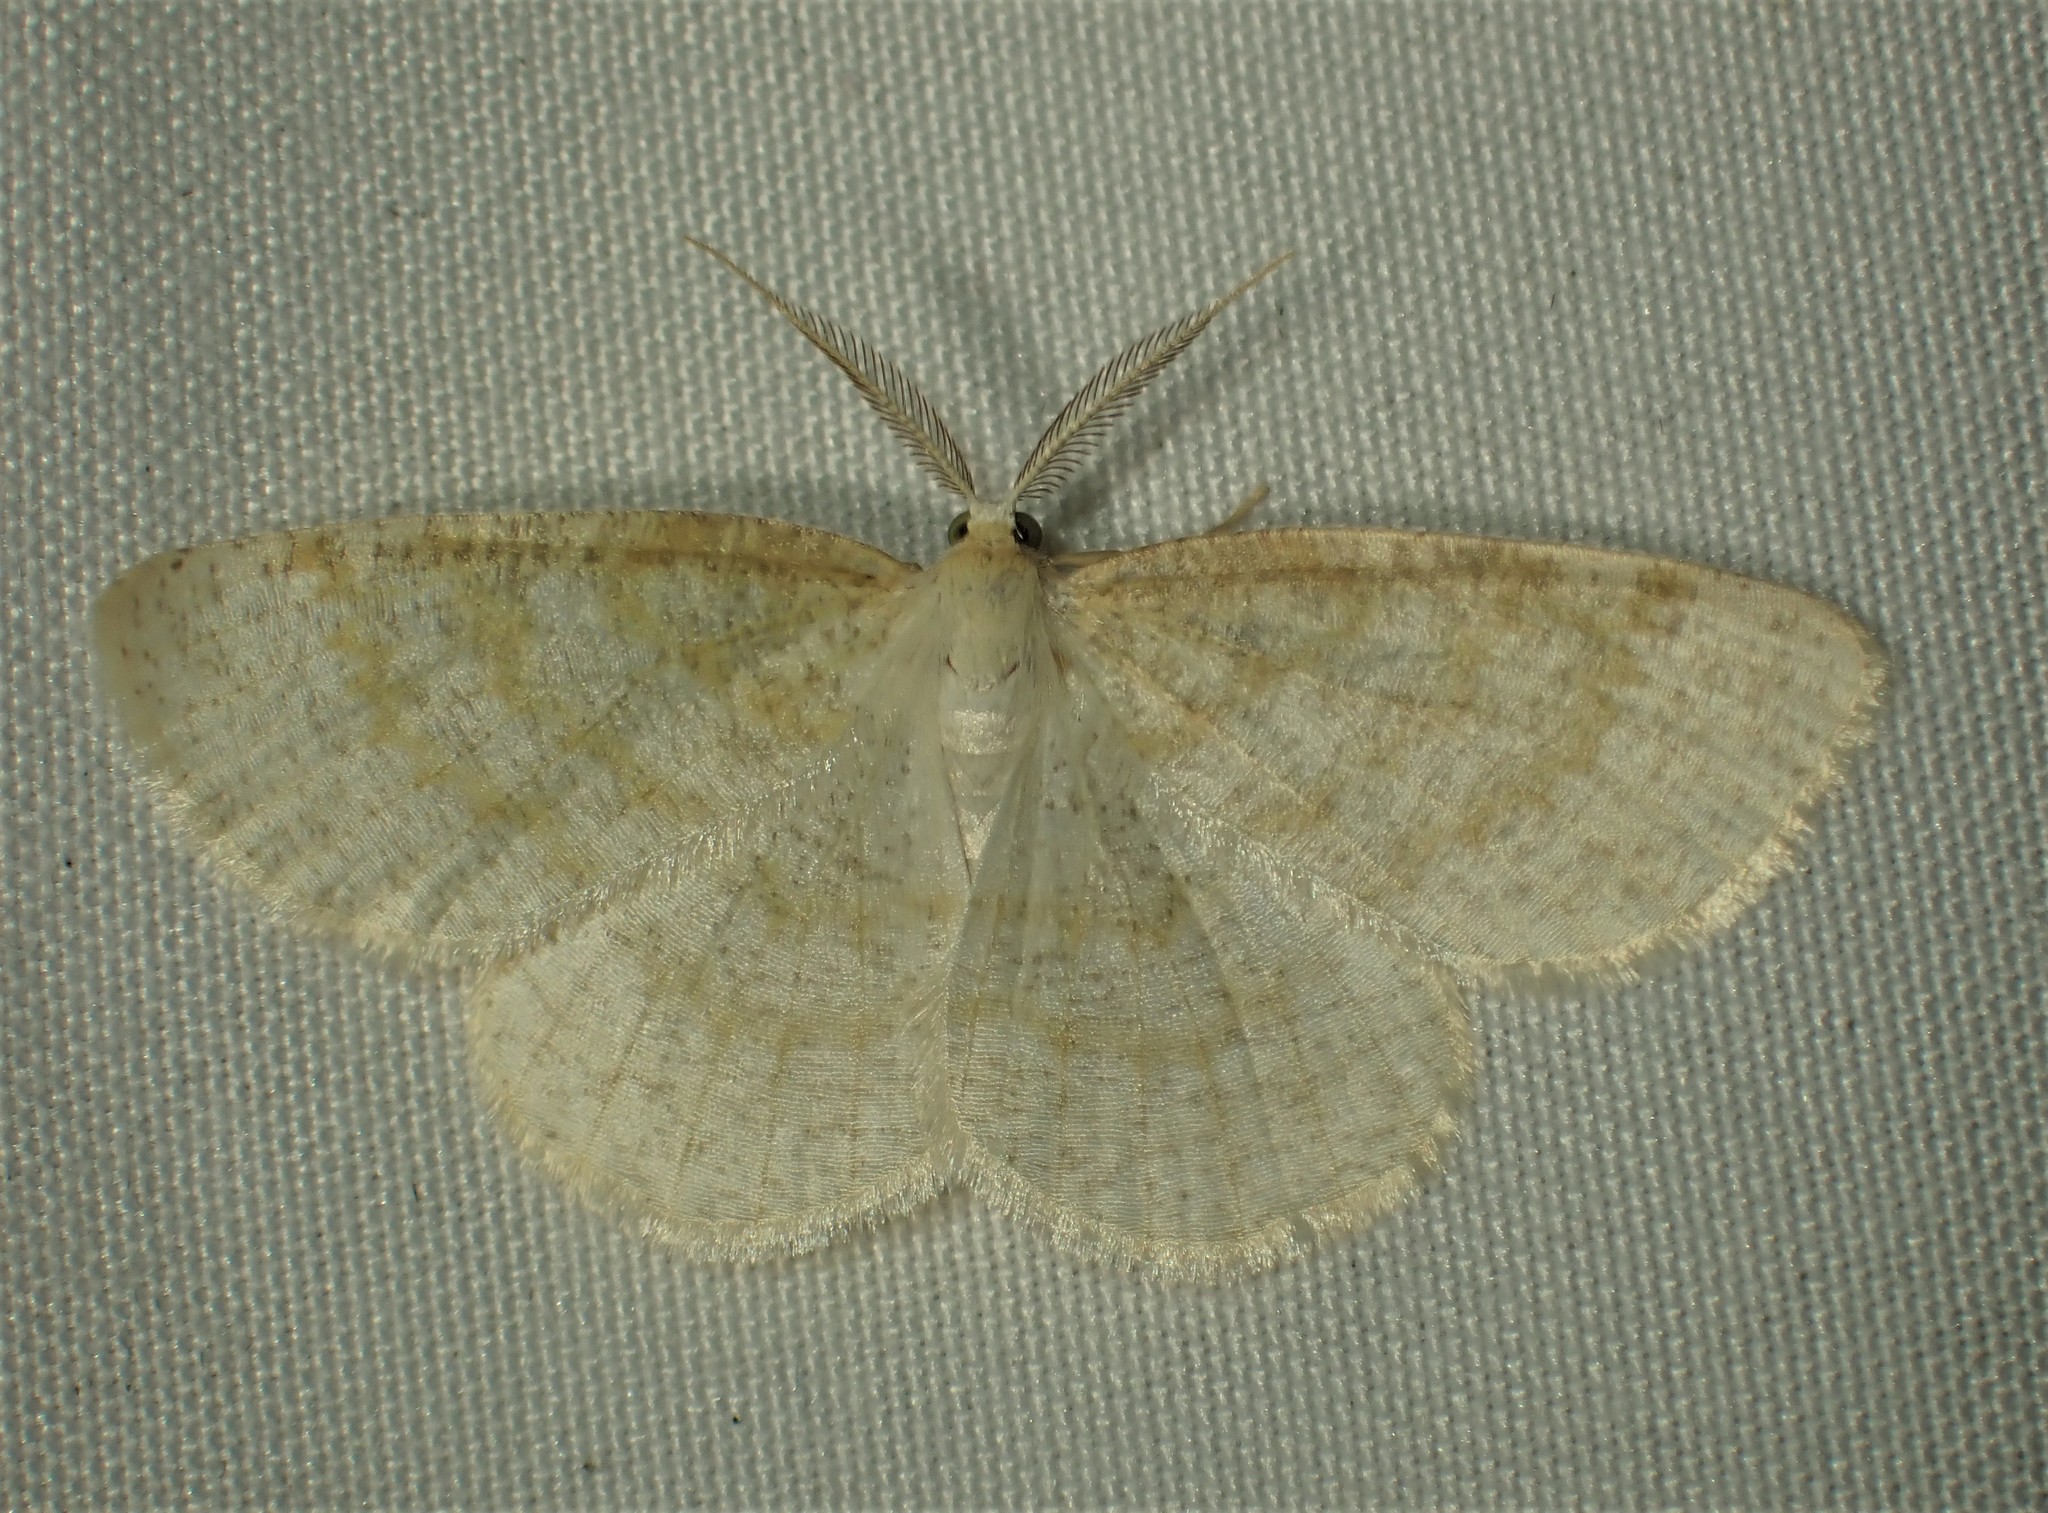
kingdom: Animalia
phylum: Arthropoda
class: Insecta
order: Lepidoptera
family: Geometridae
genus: Cabera
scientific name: Cabera erythemaria
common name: Yellow-dusted cream moth
